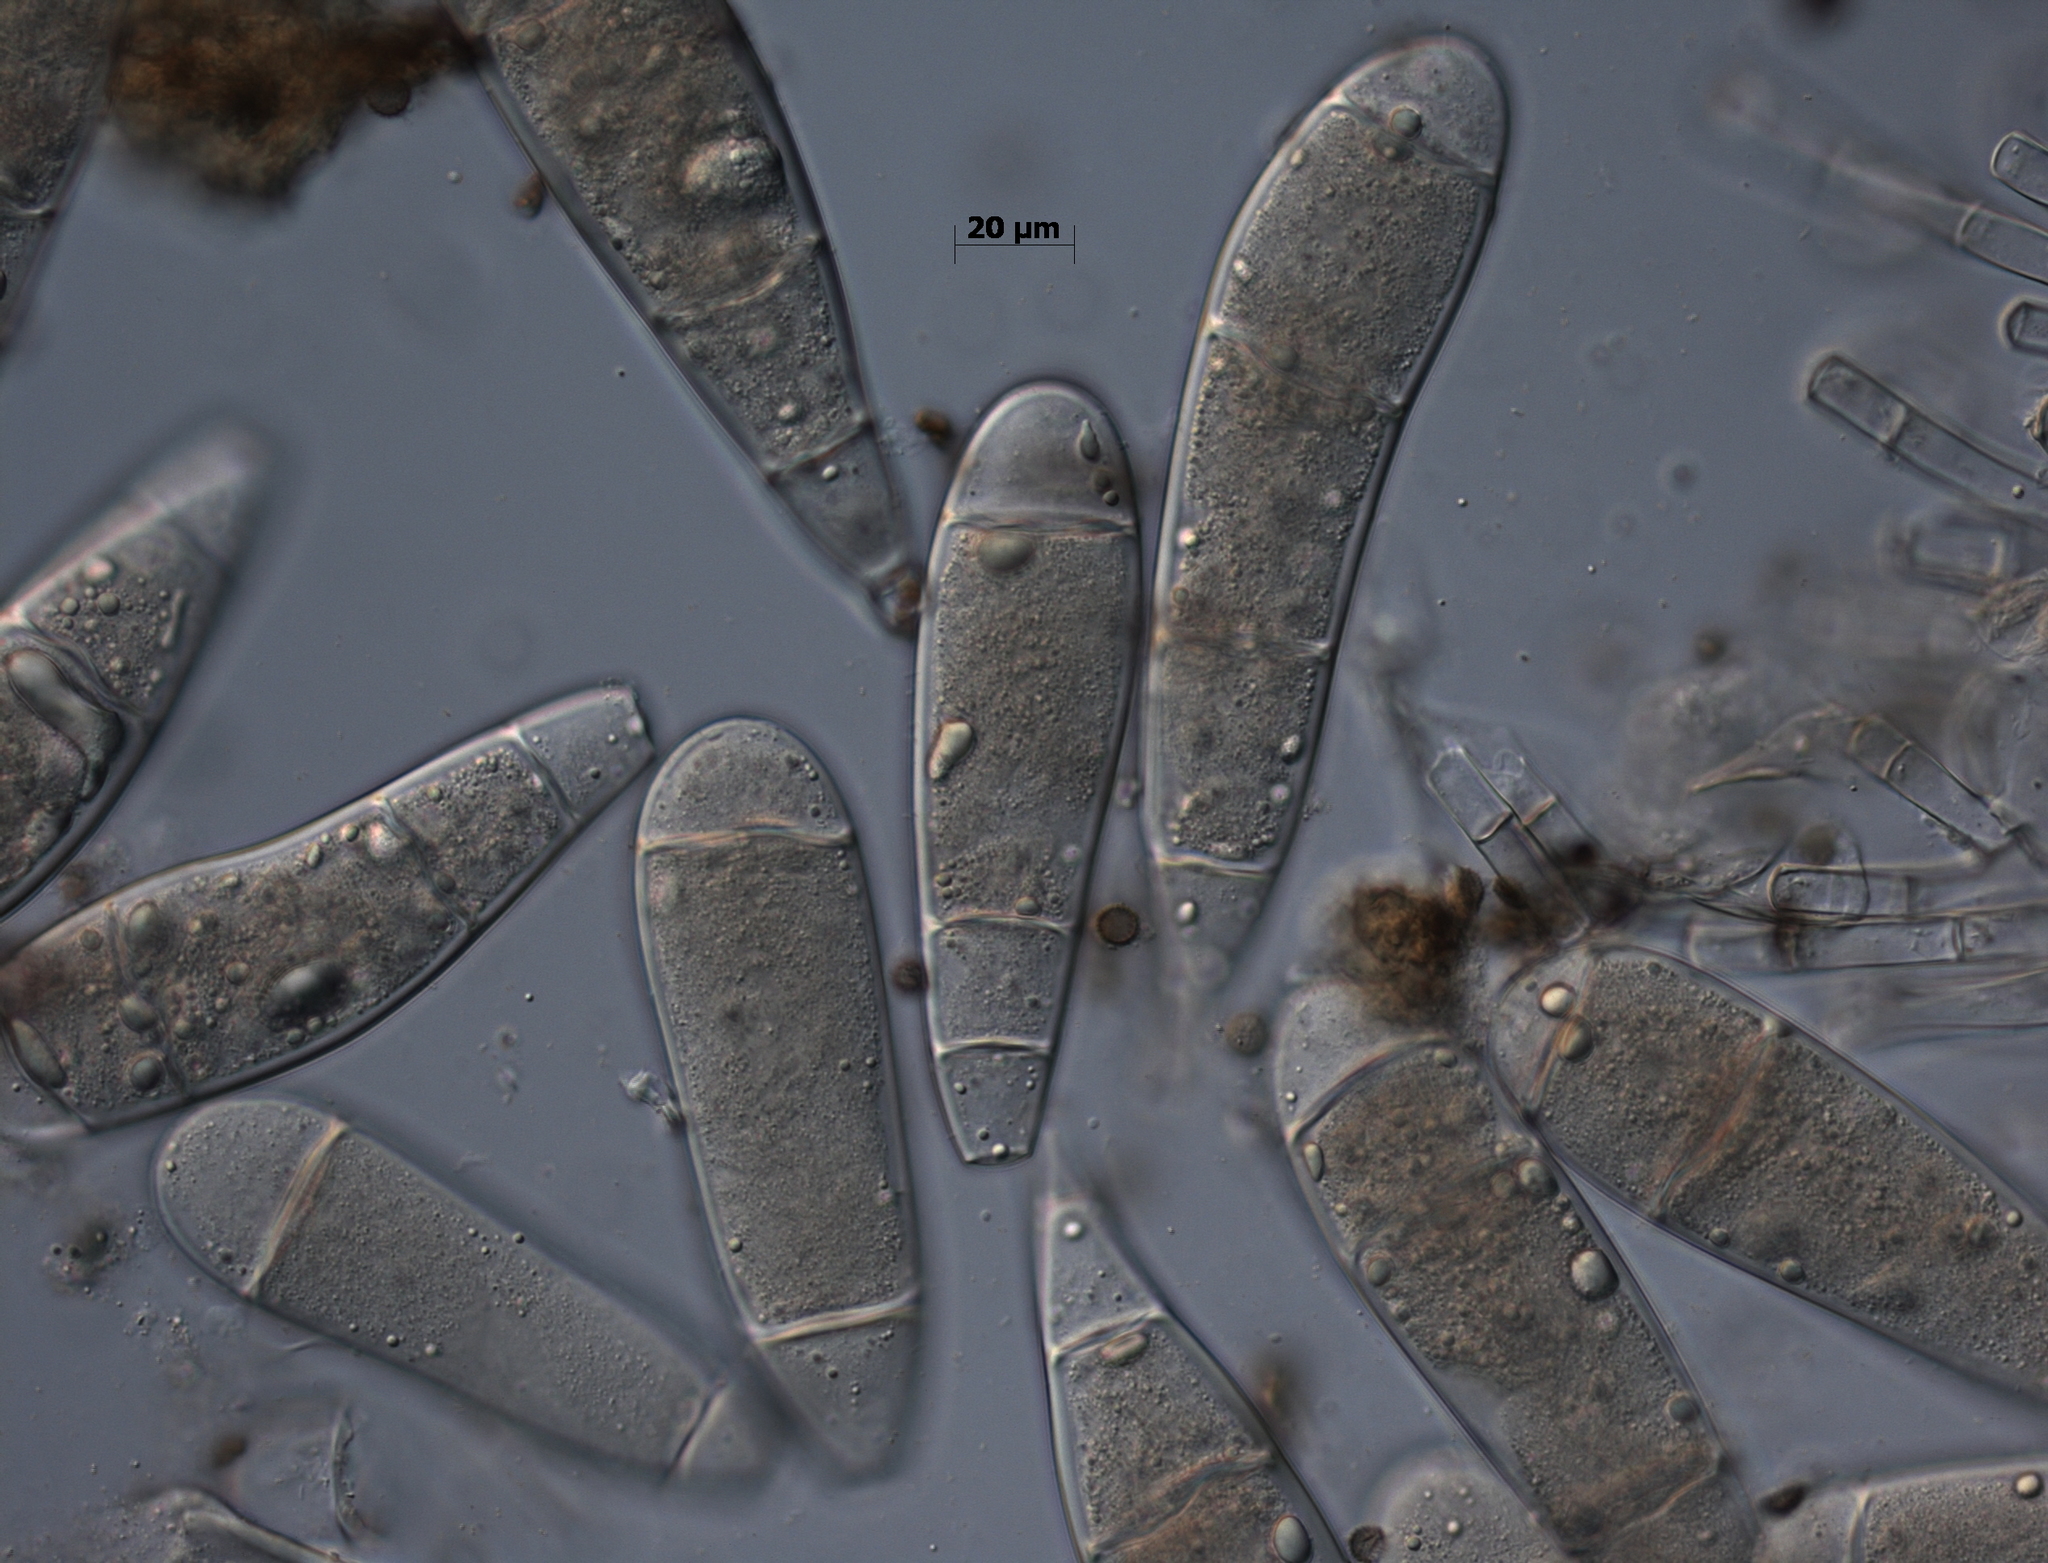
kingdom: Fungi
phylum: Ascomycota
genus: Bactridium
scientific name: Bactridium flavum
